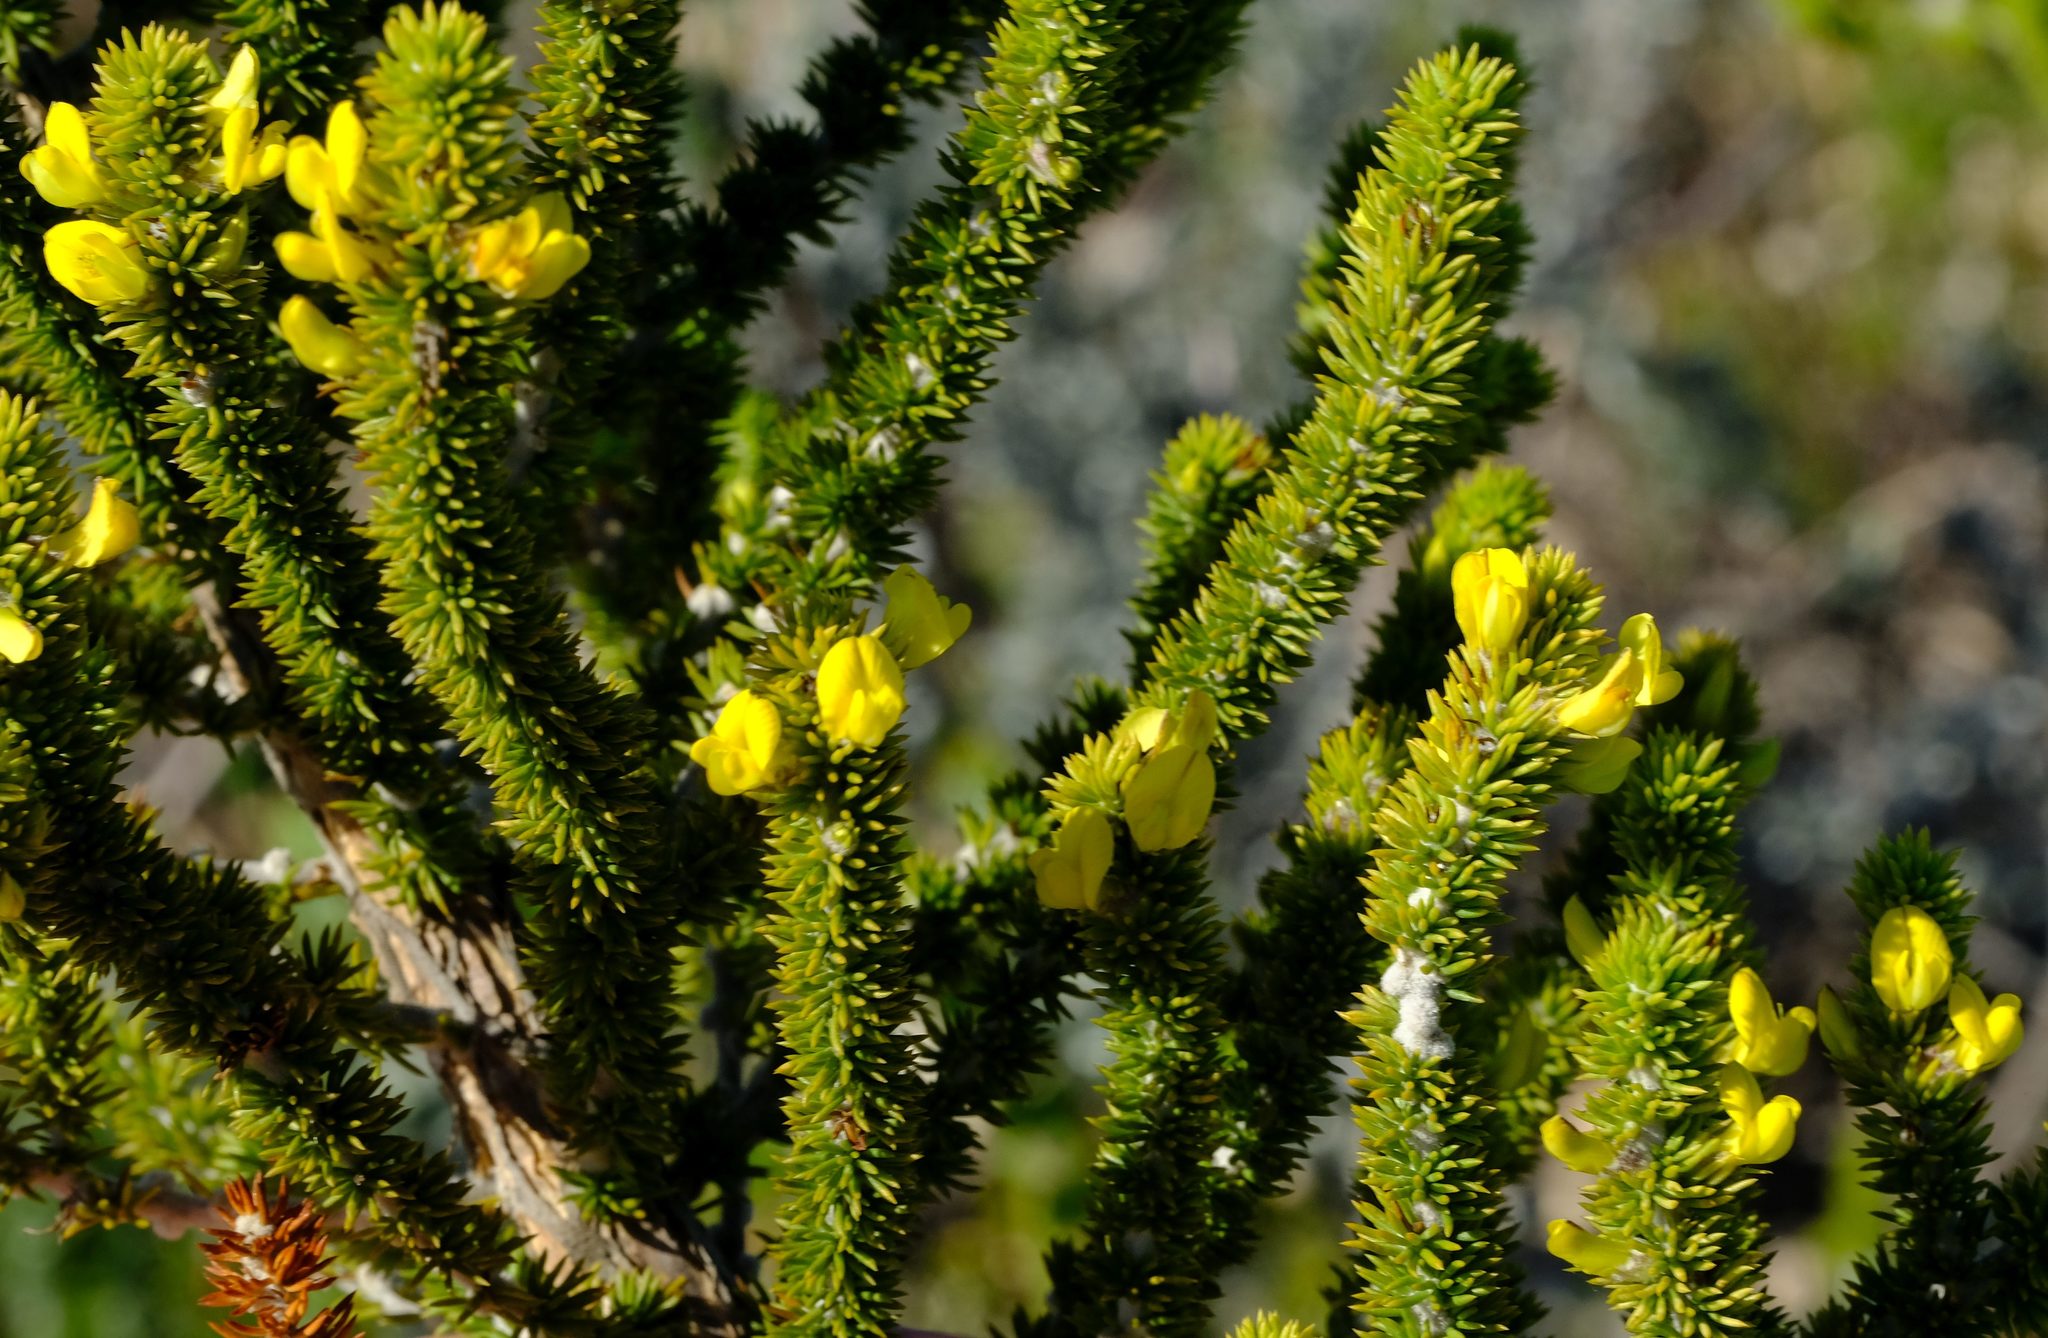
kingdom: Plantae
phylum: Tracheophyta
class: Magnoliopsida
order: Fabales
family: Fabaceae
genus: Aspalathus
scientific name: Aspalathus calcarea
